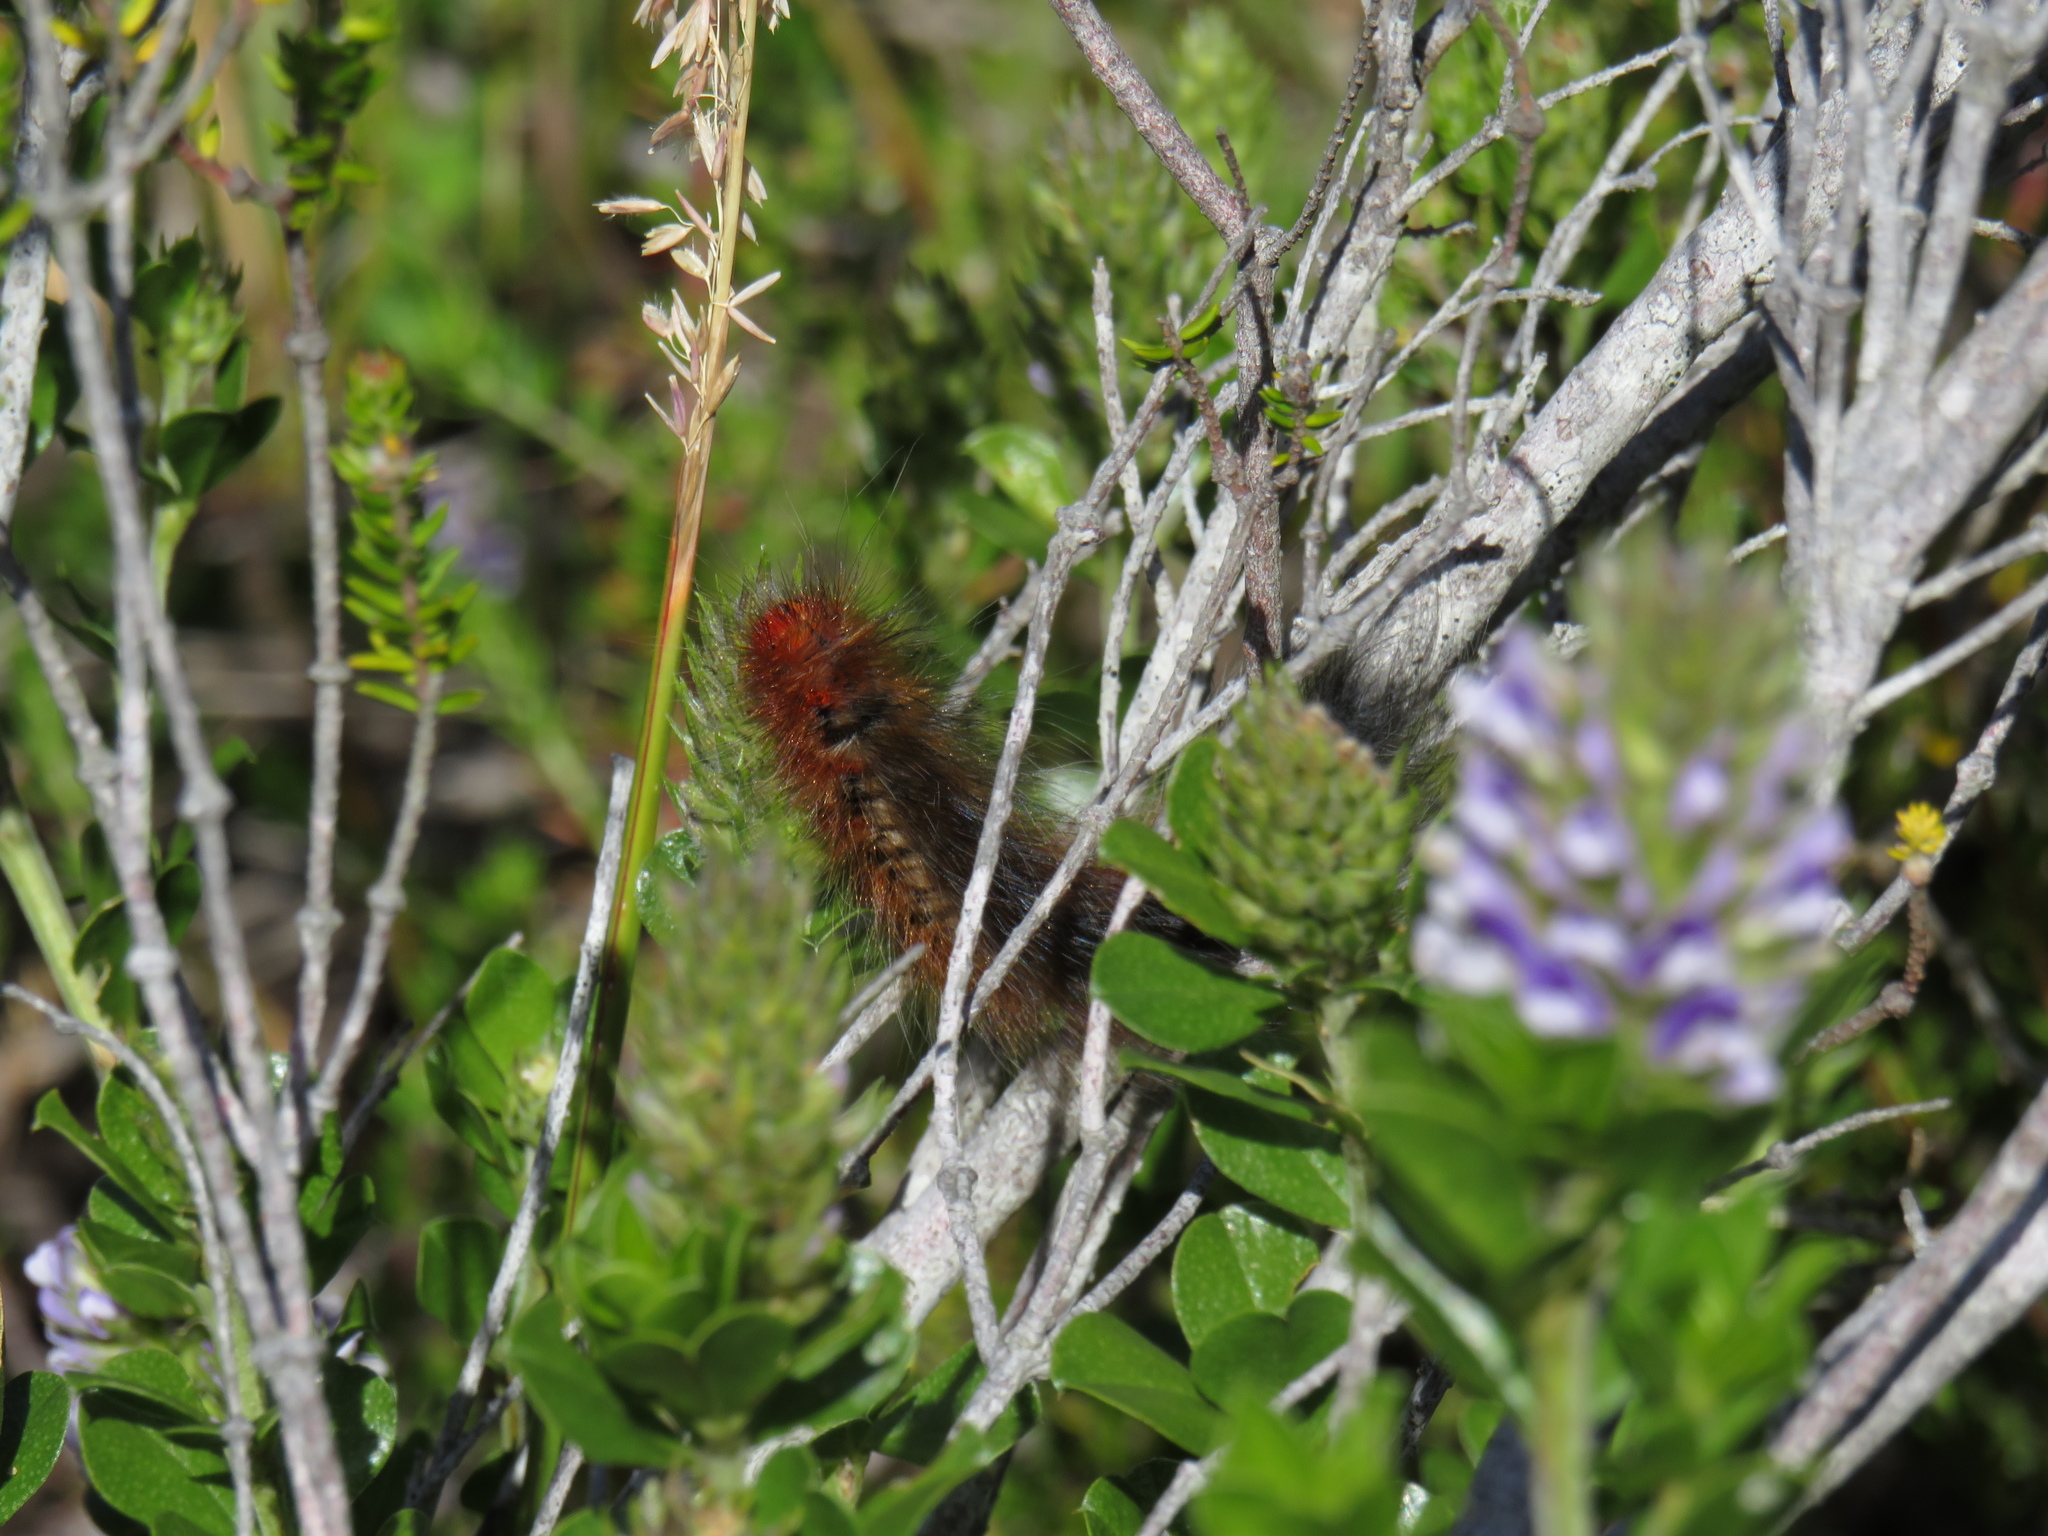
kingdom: Animalia
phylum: Arthropoda
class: Insecta
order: Lepidoptera
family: Lasiocampidae
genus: Mesocelis
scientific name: Mesocelis monticola
